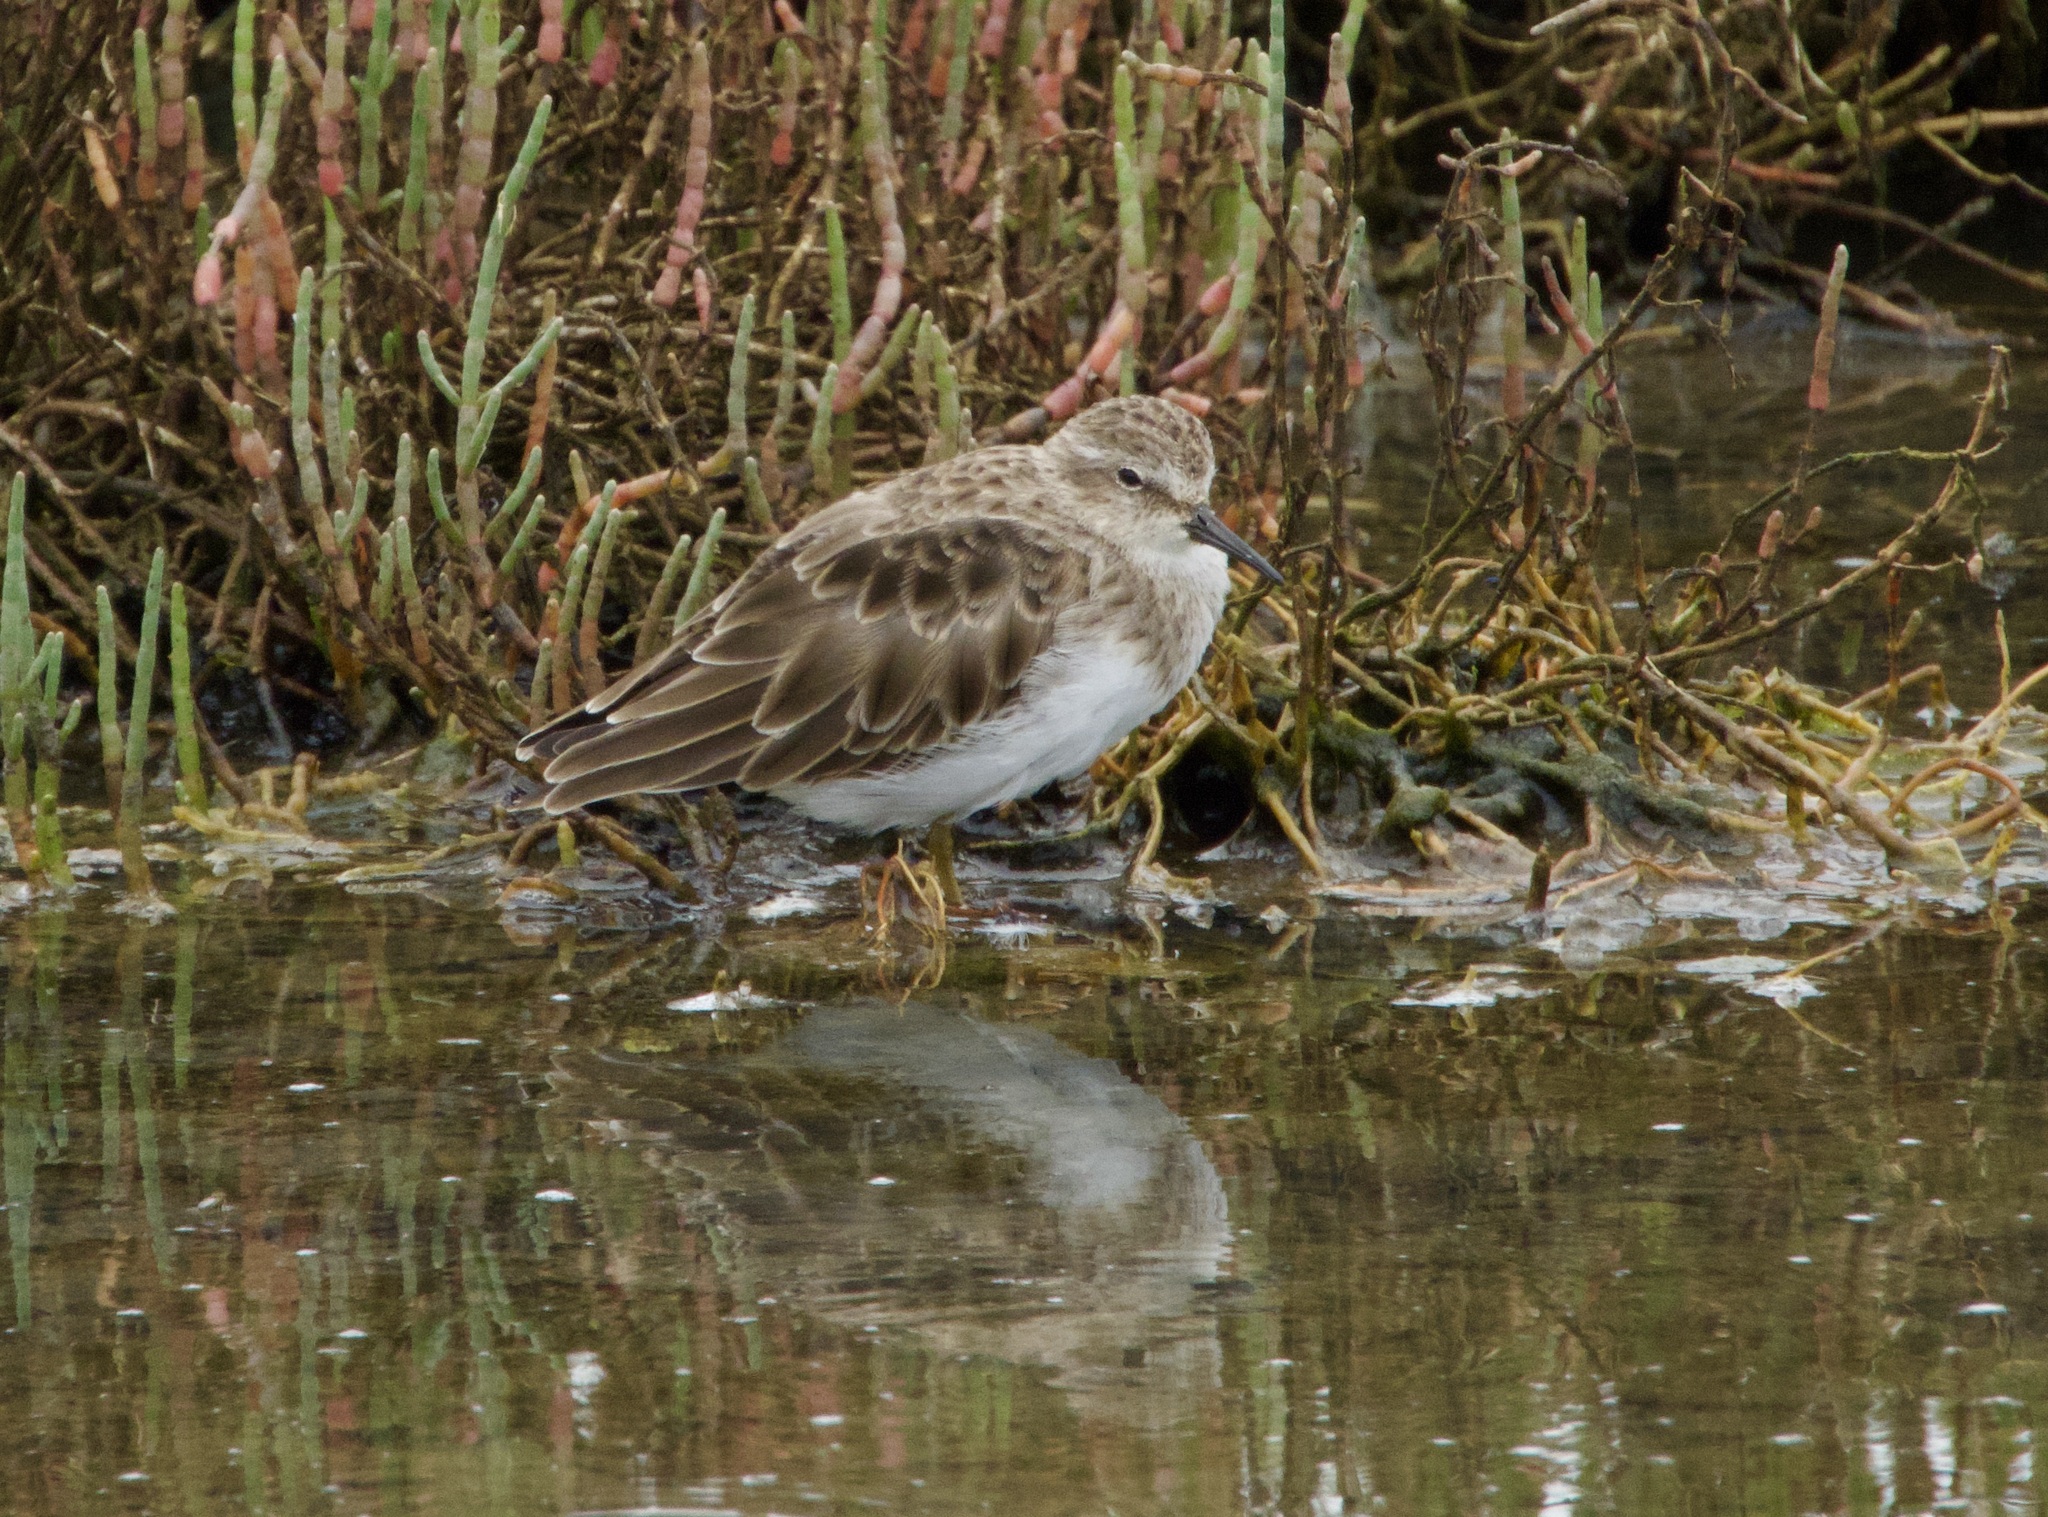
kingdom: Animalia
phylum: Chordata
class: Aves
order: Charadriiformes
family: Scolopacidae
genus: Calidris
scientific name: Calidris minutilla
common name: Least sandpiper
